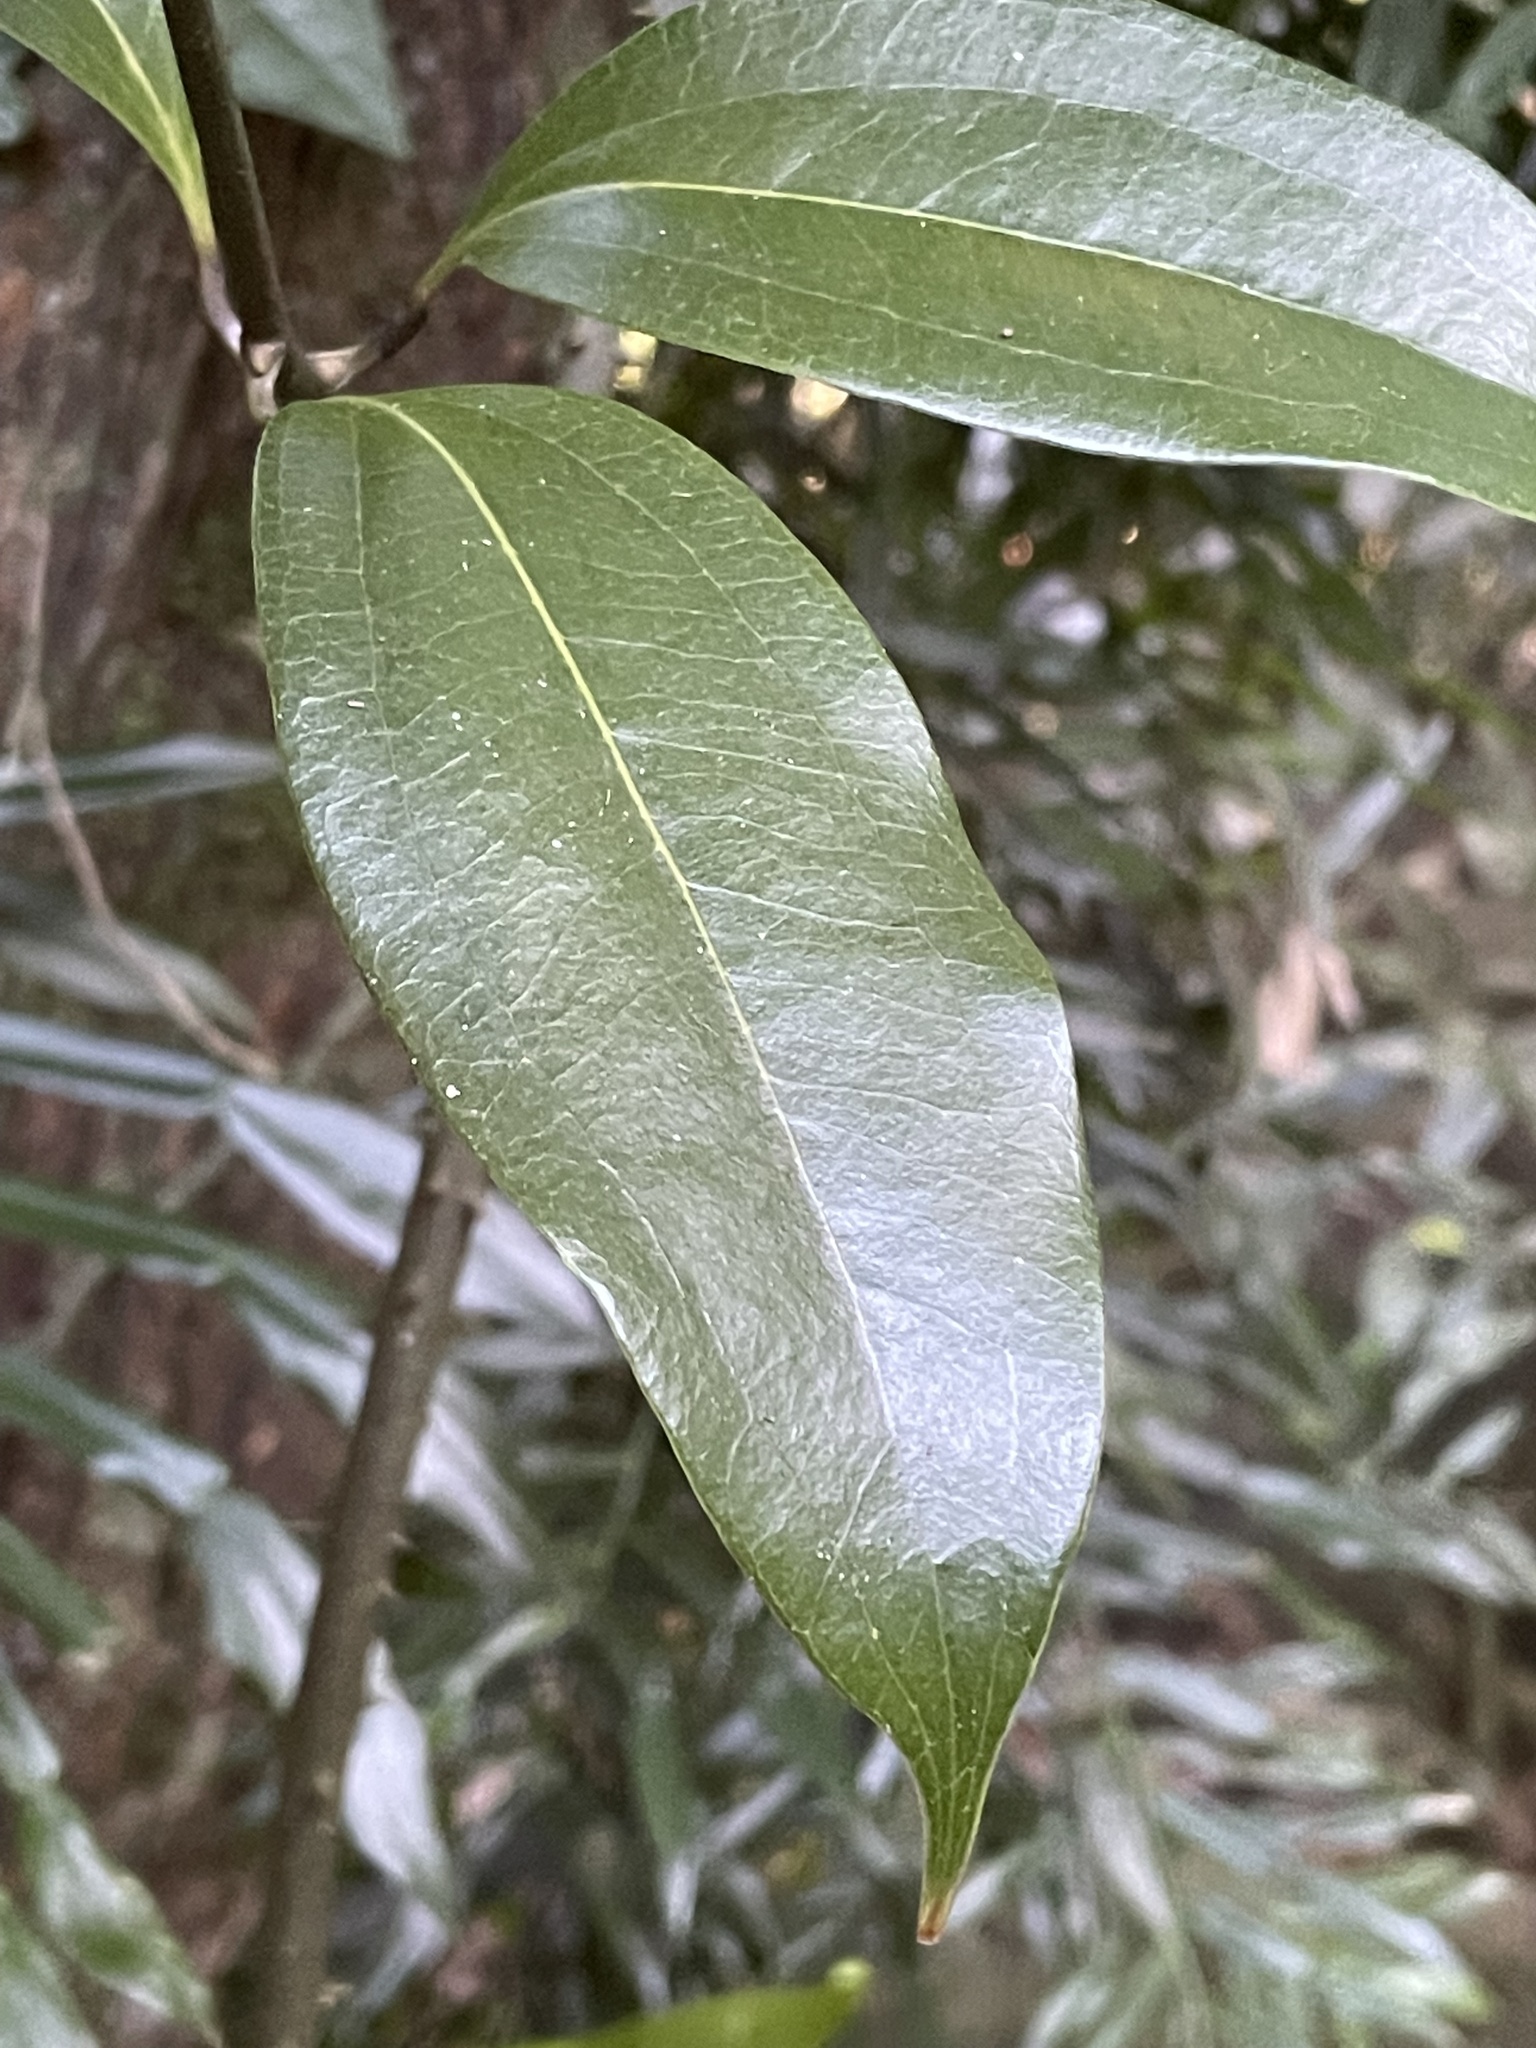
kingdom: Plantae
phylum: Tracheophyta
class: Liliopsida
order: Liliales
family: Ripogonaceae
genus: Ripogonum
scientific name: Ripogonum album
